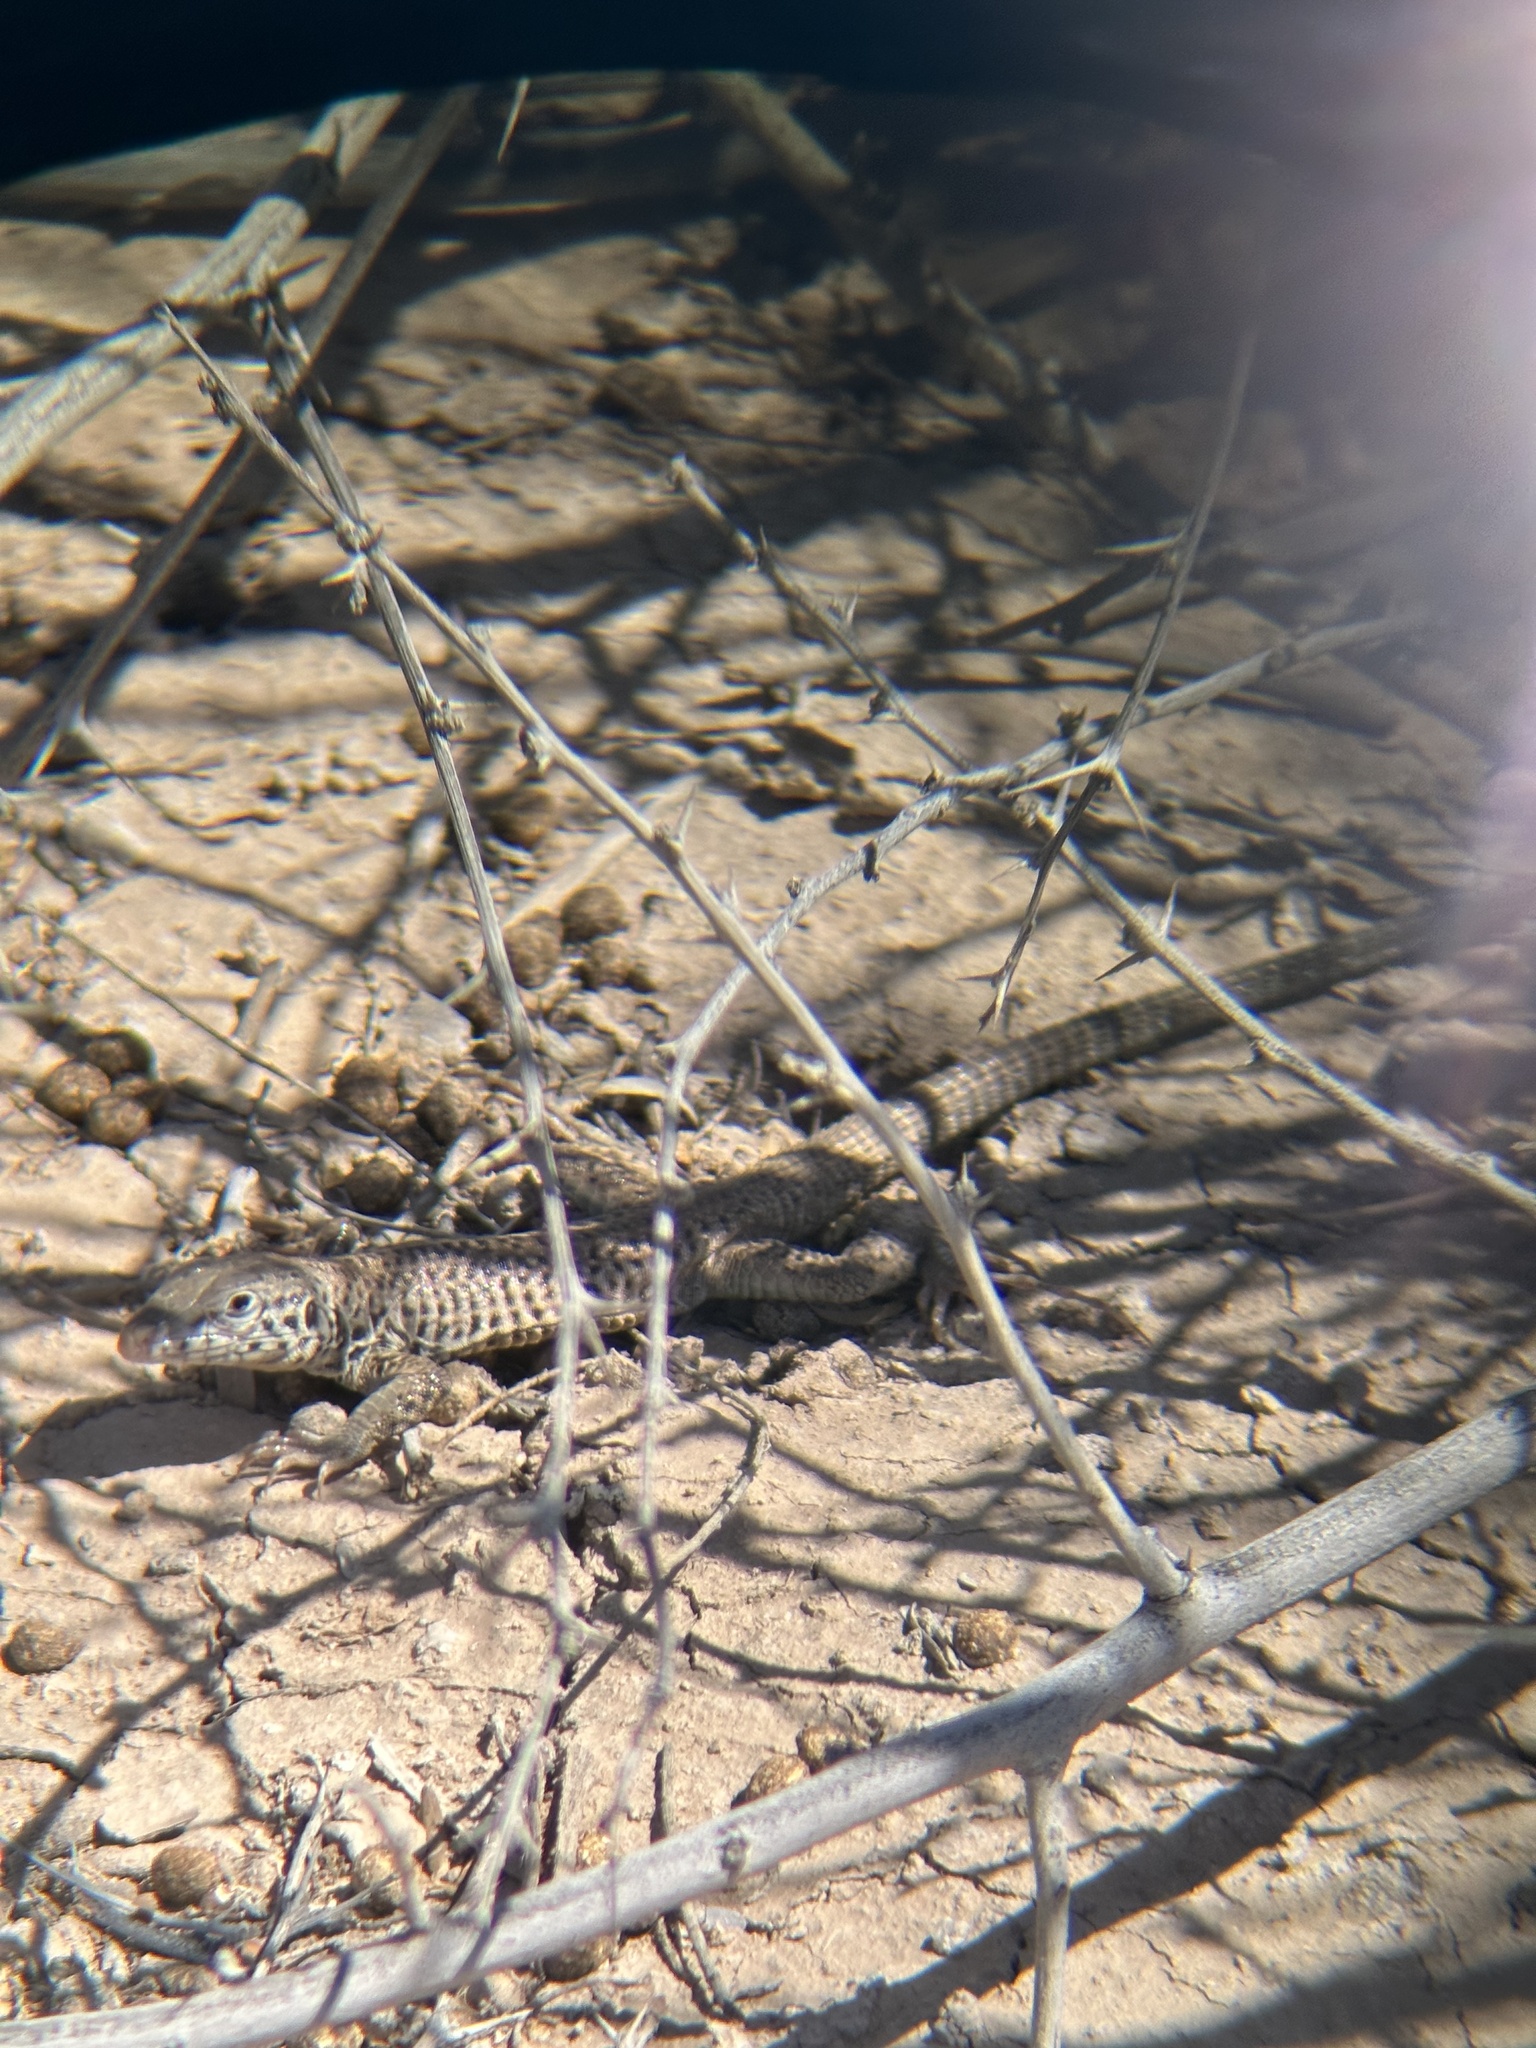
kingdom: Animalia
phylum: Chordata
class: Squamata
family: Teiidae
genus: Aspidoscelis
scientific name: Aspidoscelis tigris
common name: Tiger whiptail
